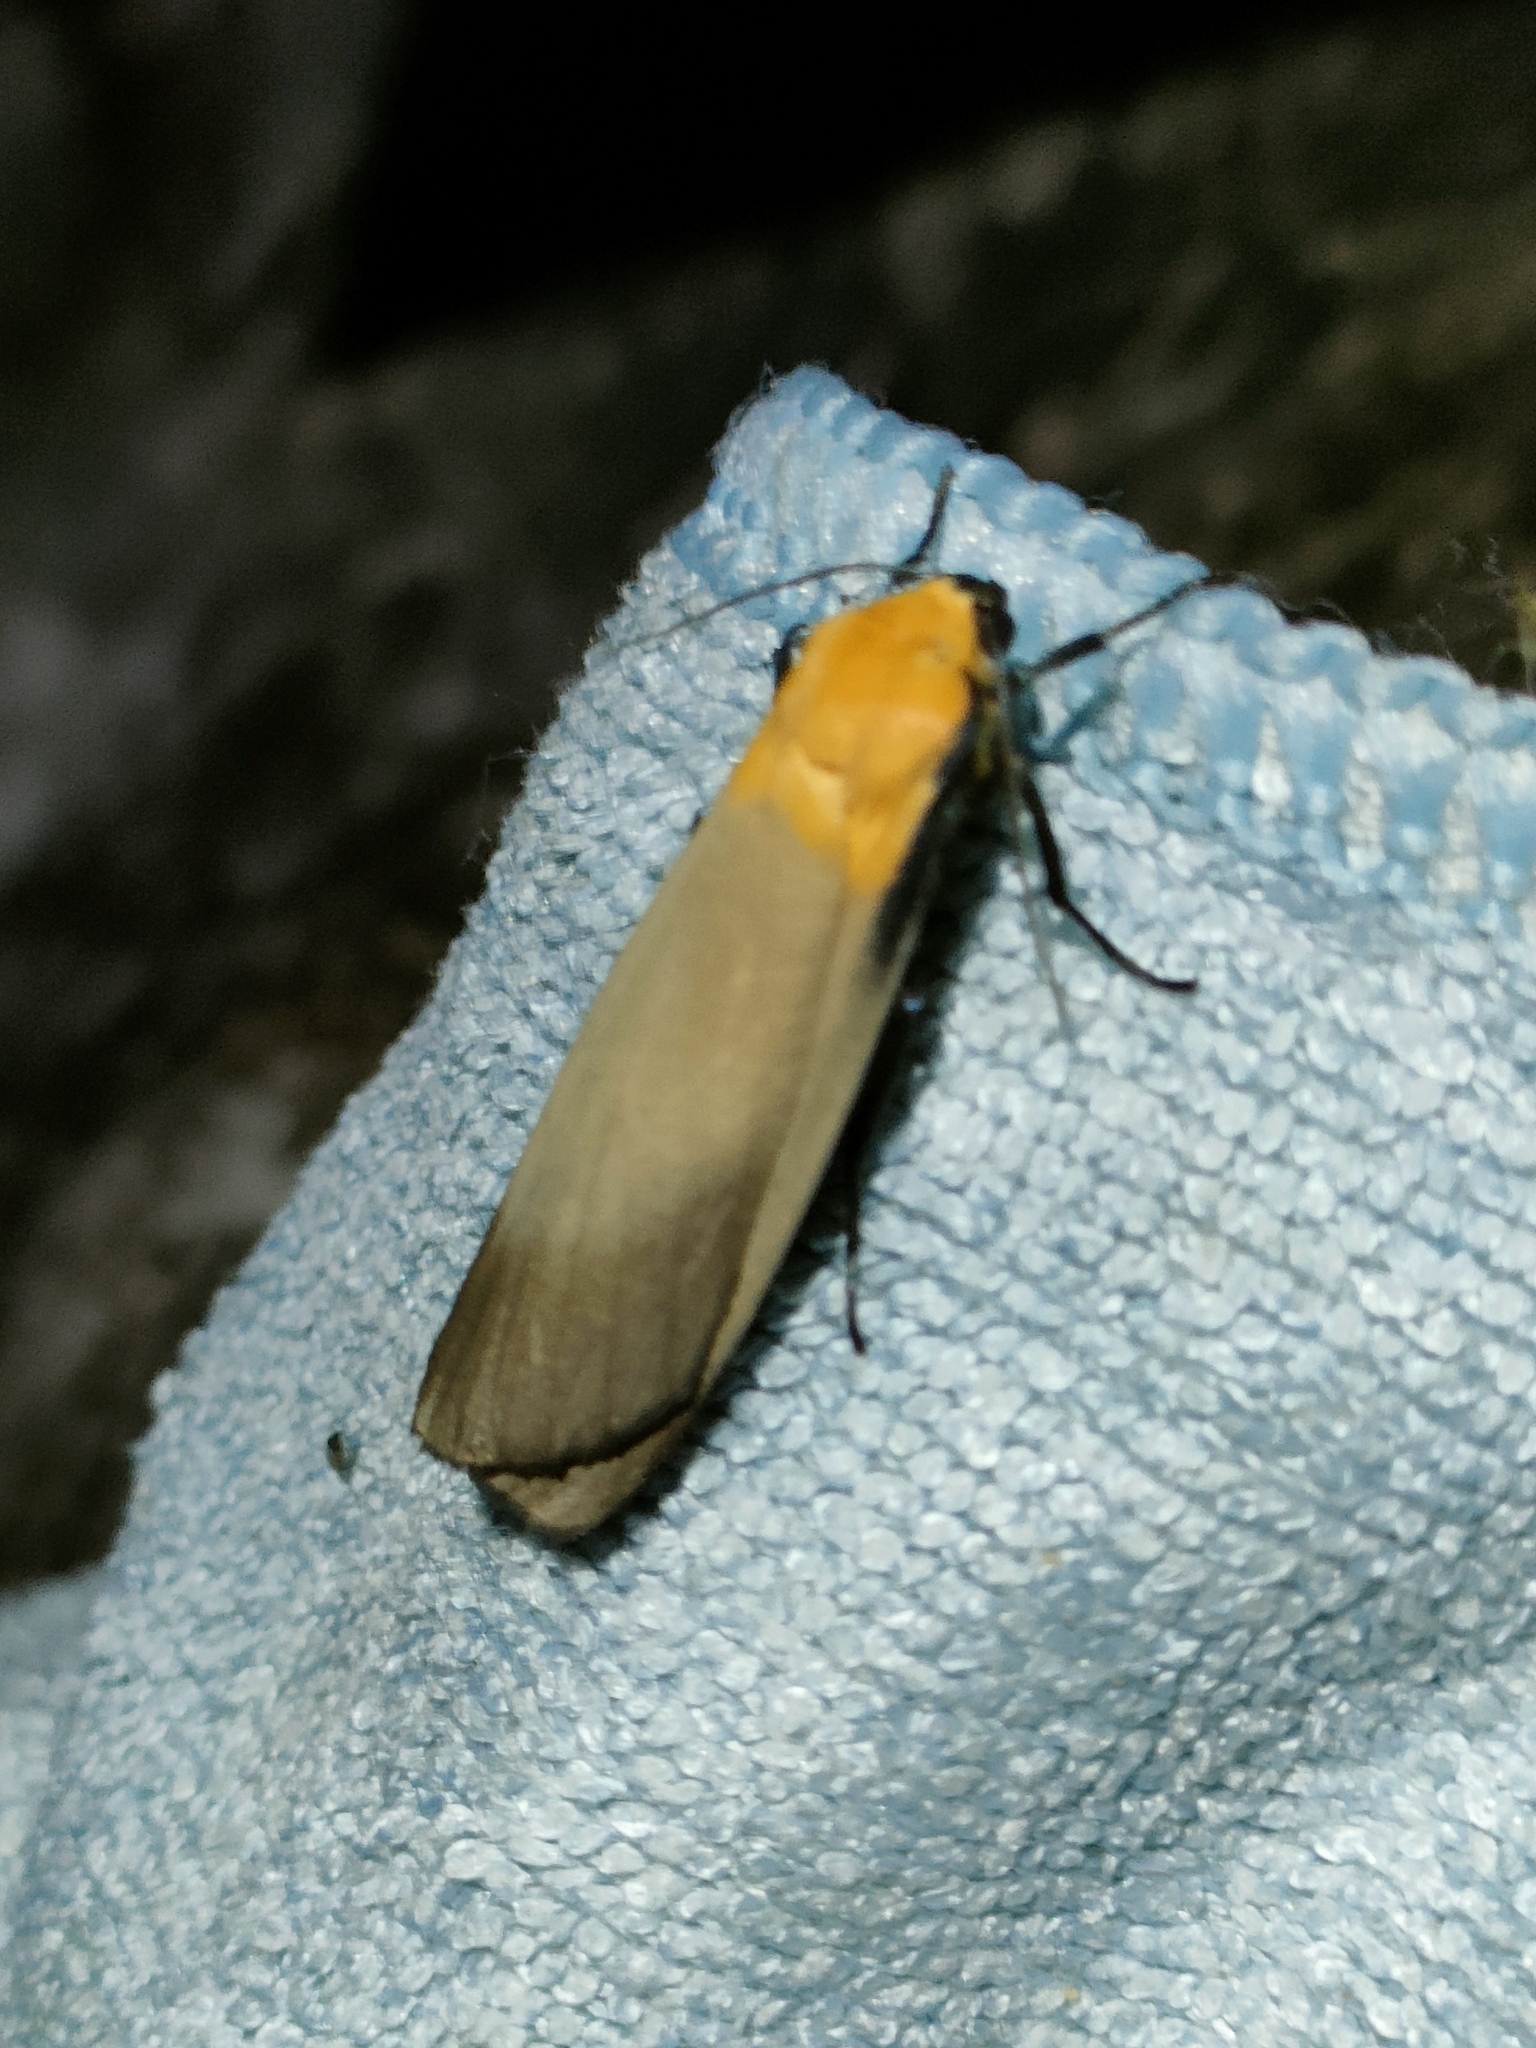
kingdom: Animalia
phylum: Arthropoda
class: Insecta
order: Lepidoptera
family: Erebidae
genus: Lithosia
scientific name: Lithosia quadra
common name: Four-spotted footman
